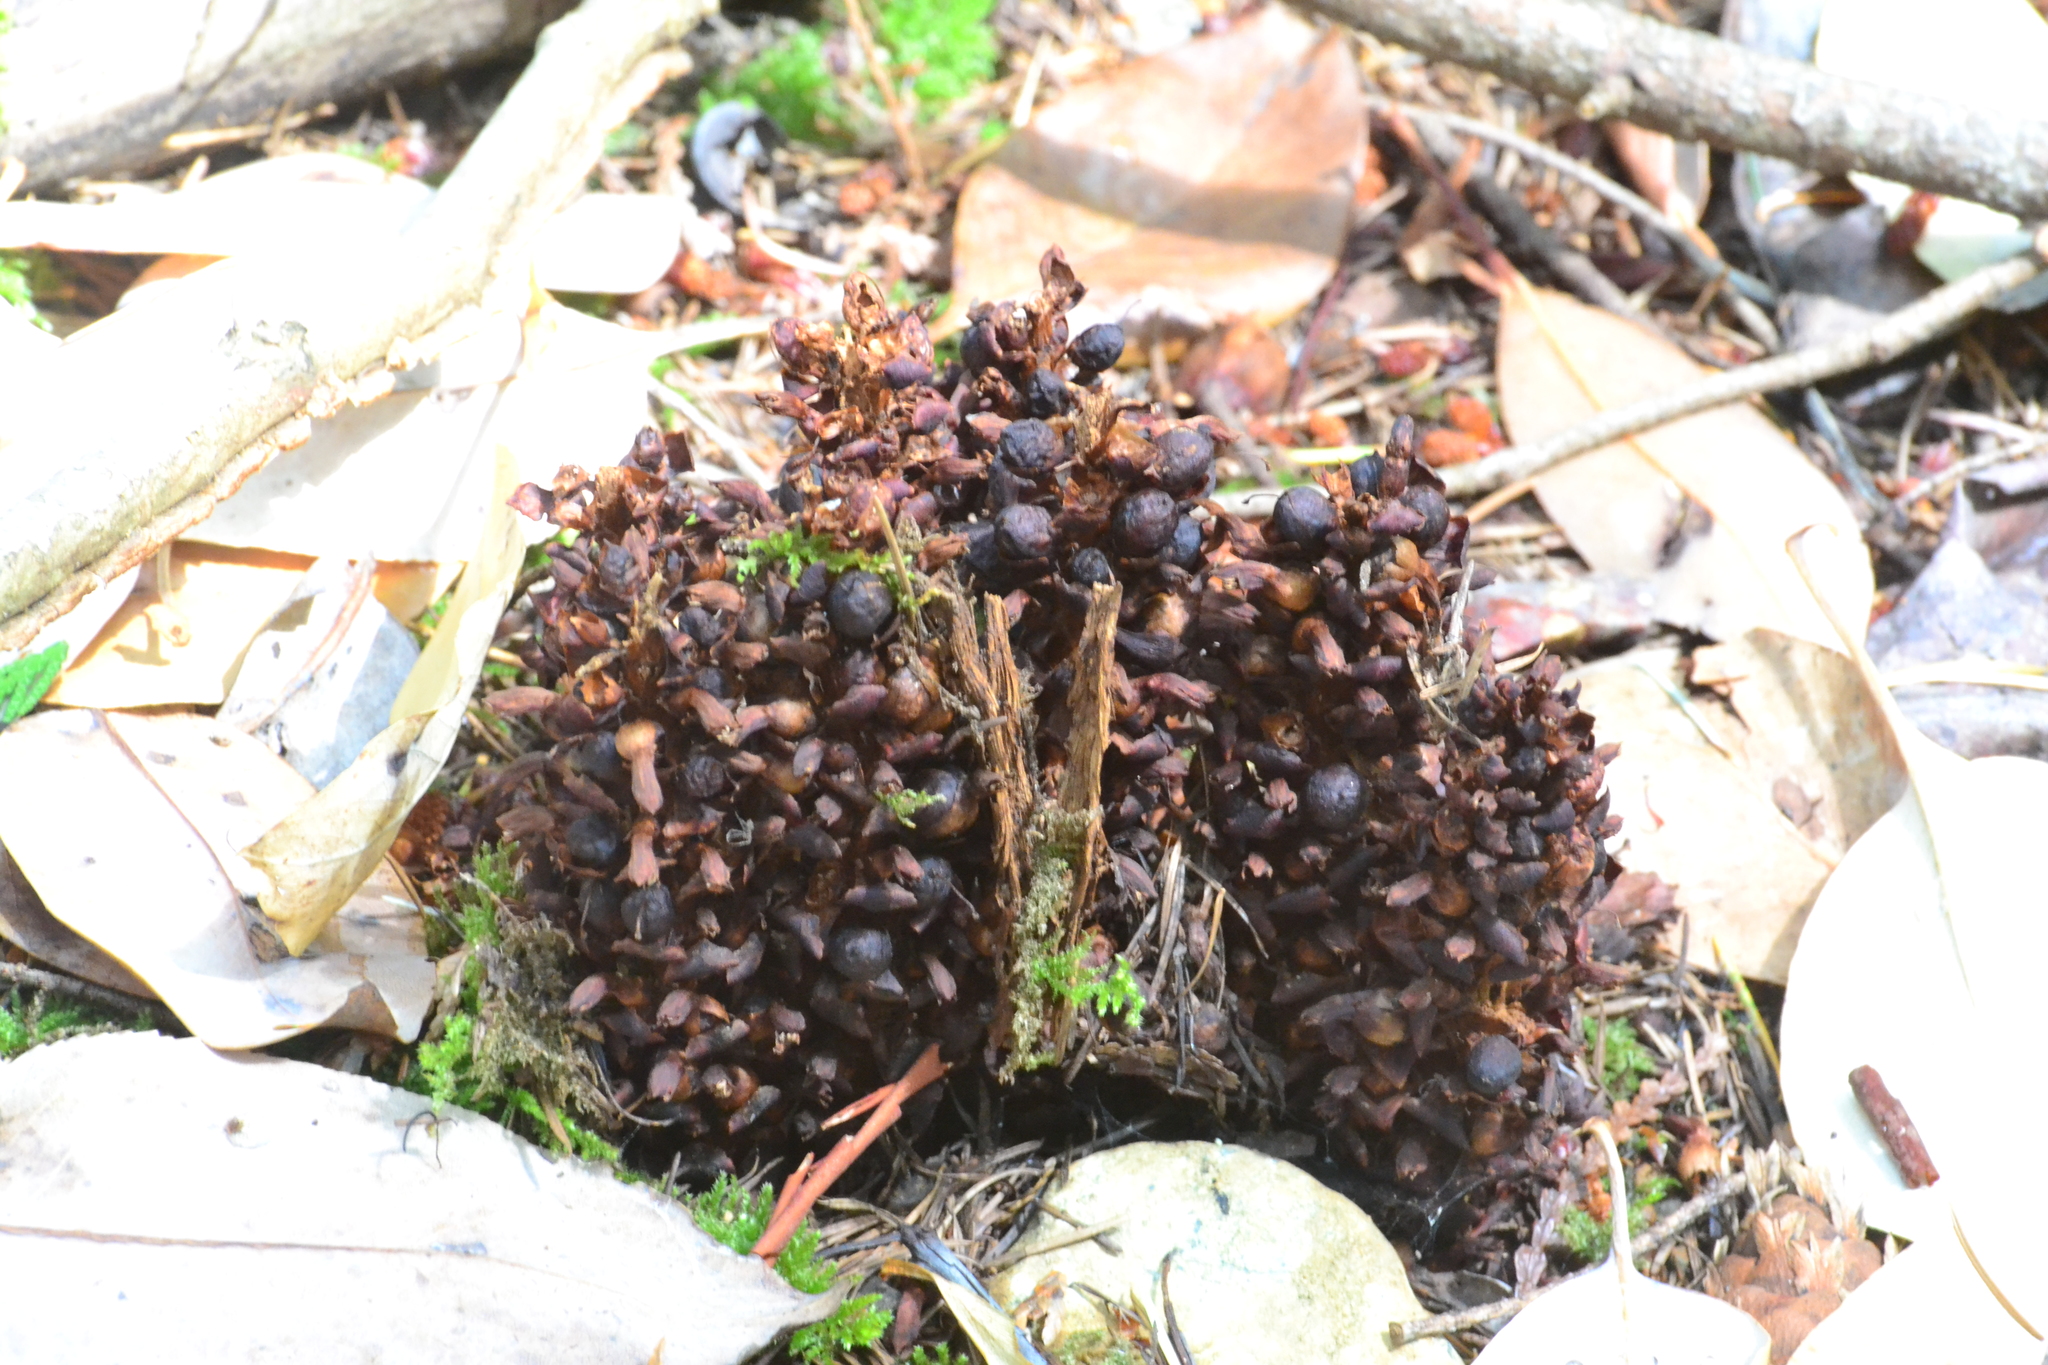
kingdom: Plantae
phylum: Tracheophyta
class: Magnoliopsida
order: Lamiales
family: Orobanchaceae
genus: Kopsiopsis
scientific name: Kopsiopsis hookeri
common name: Hooker's groundcone
